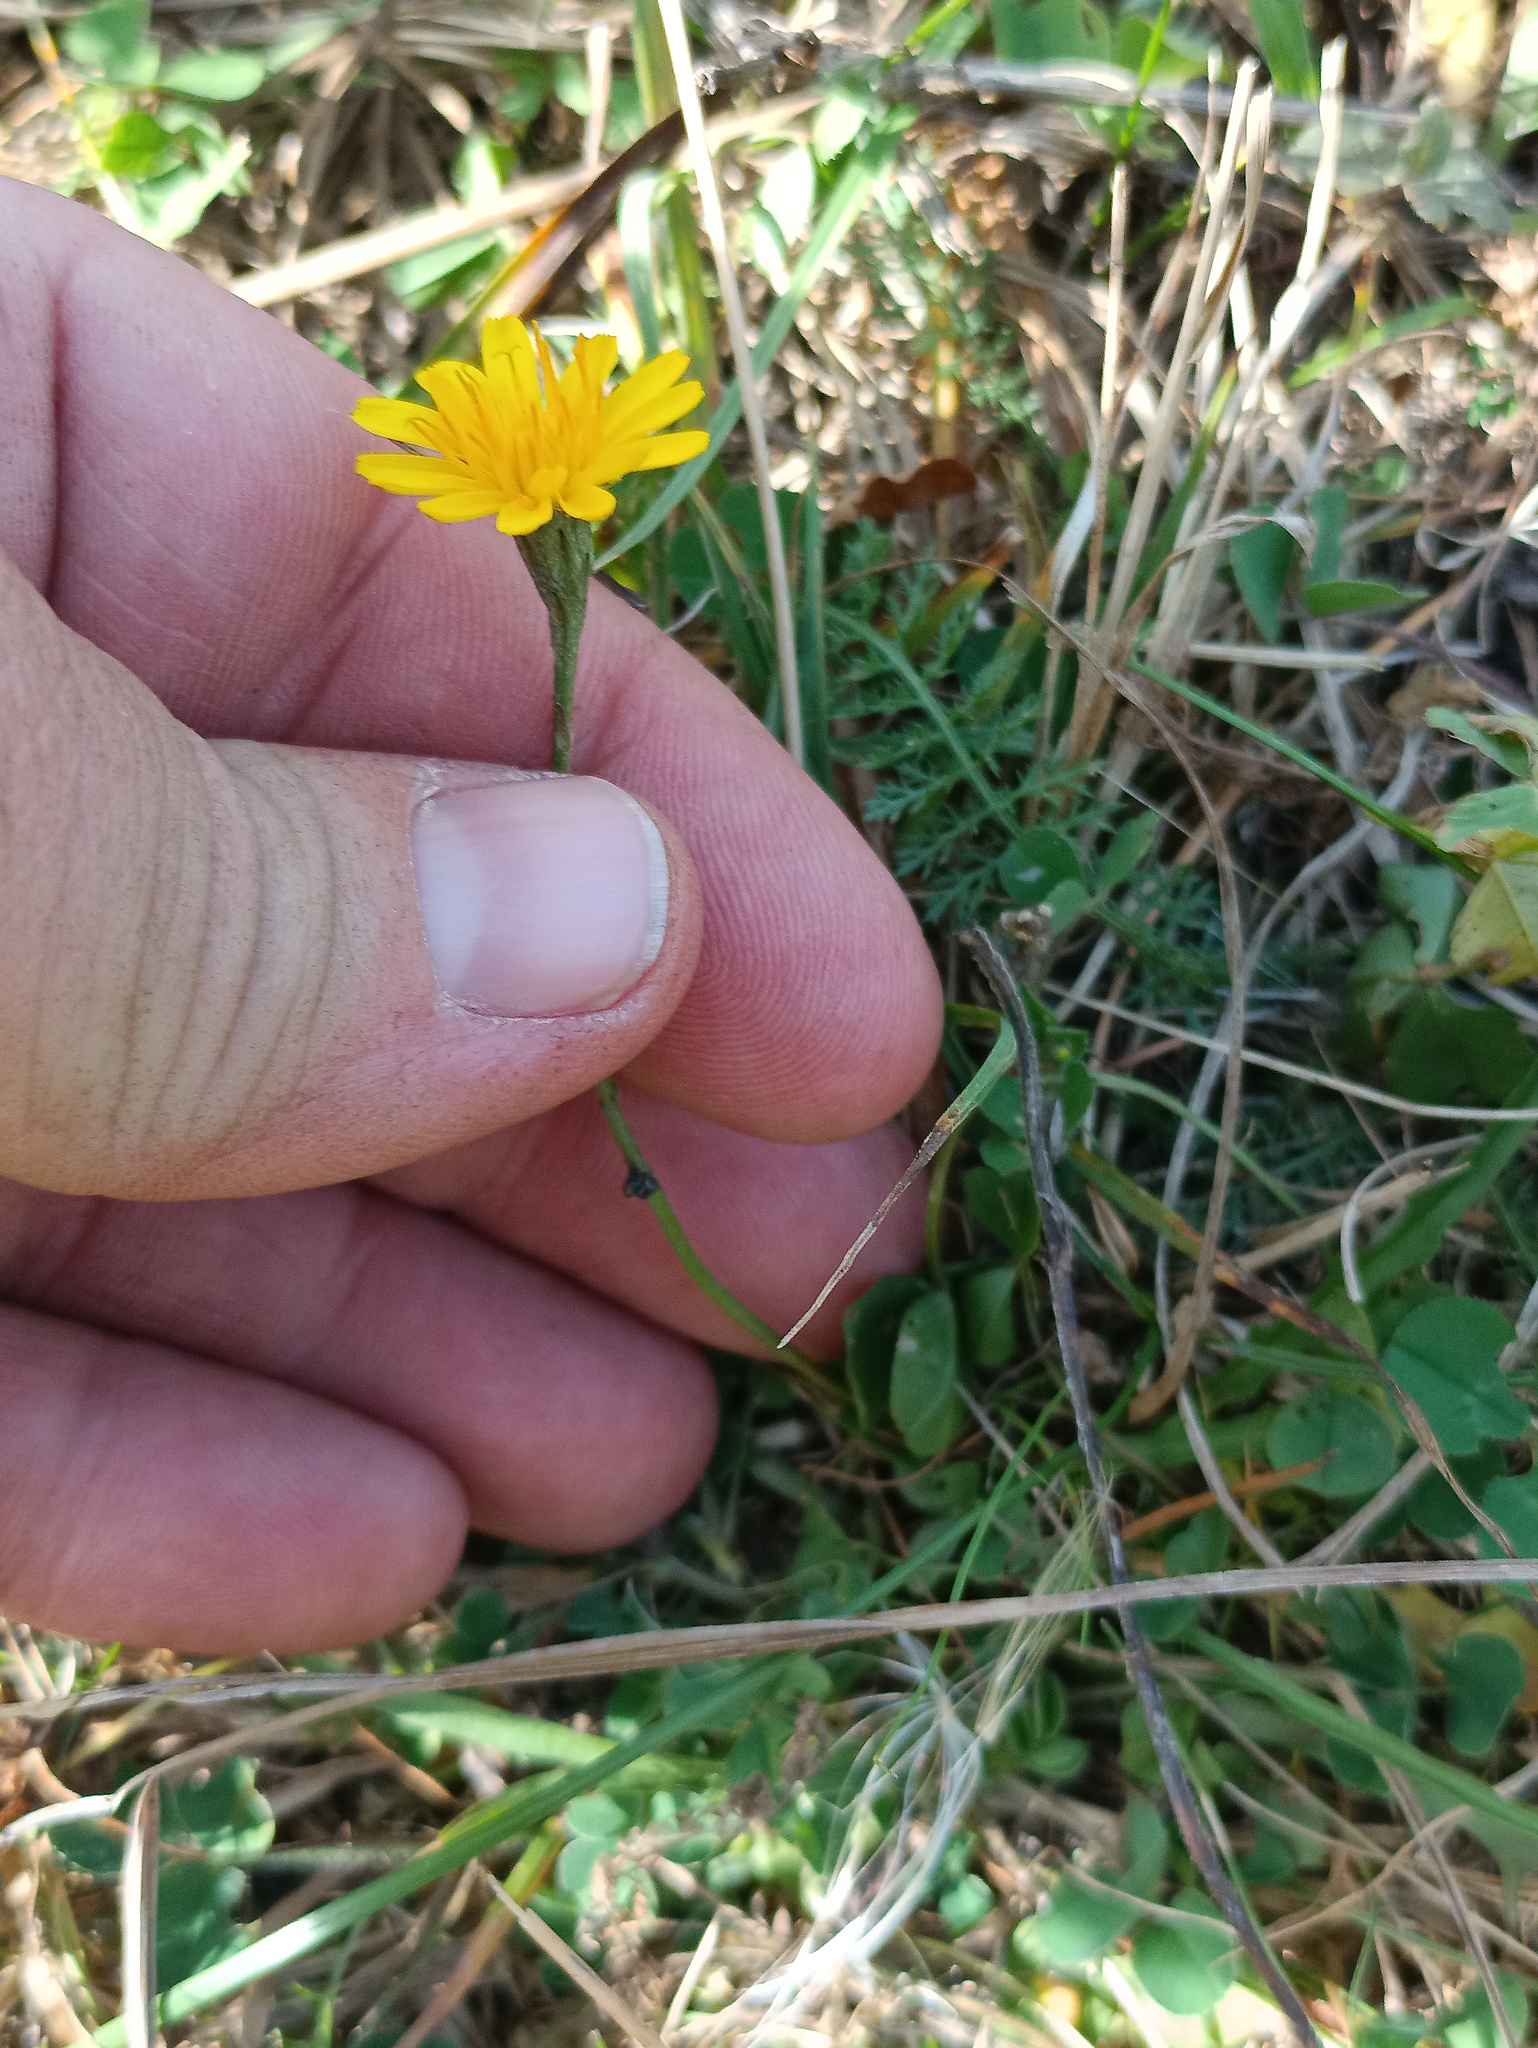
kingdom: Plantae
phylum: Tracheophyta
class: Magnoliopsida
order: Asterales
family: Asteraceae
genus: Scorzoneroides
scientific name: Scorzoneroides autumnalis
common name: Autumn hawkbit
